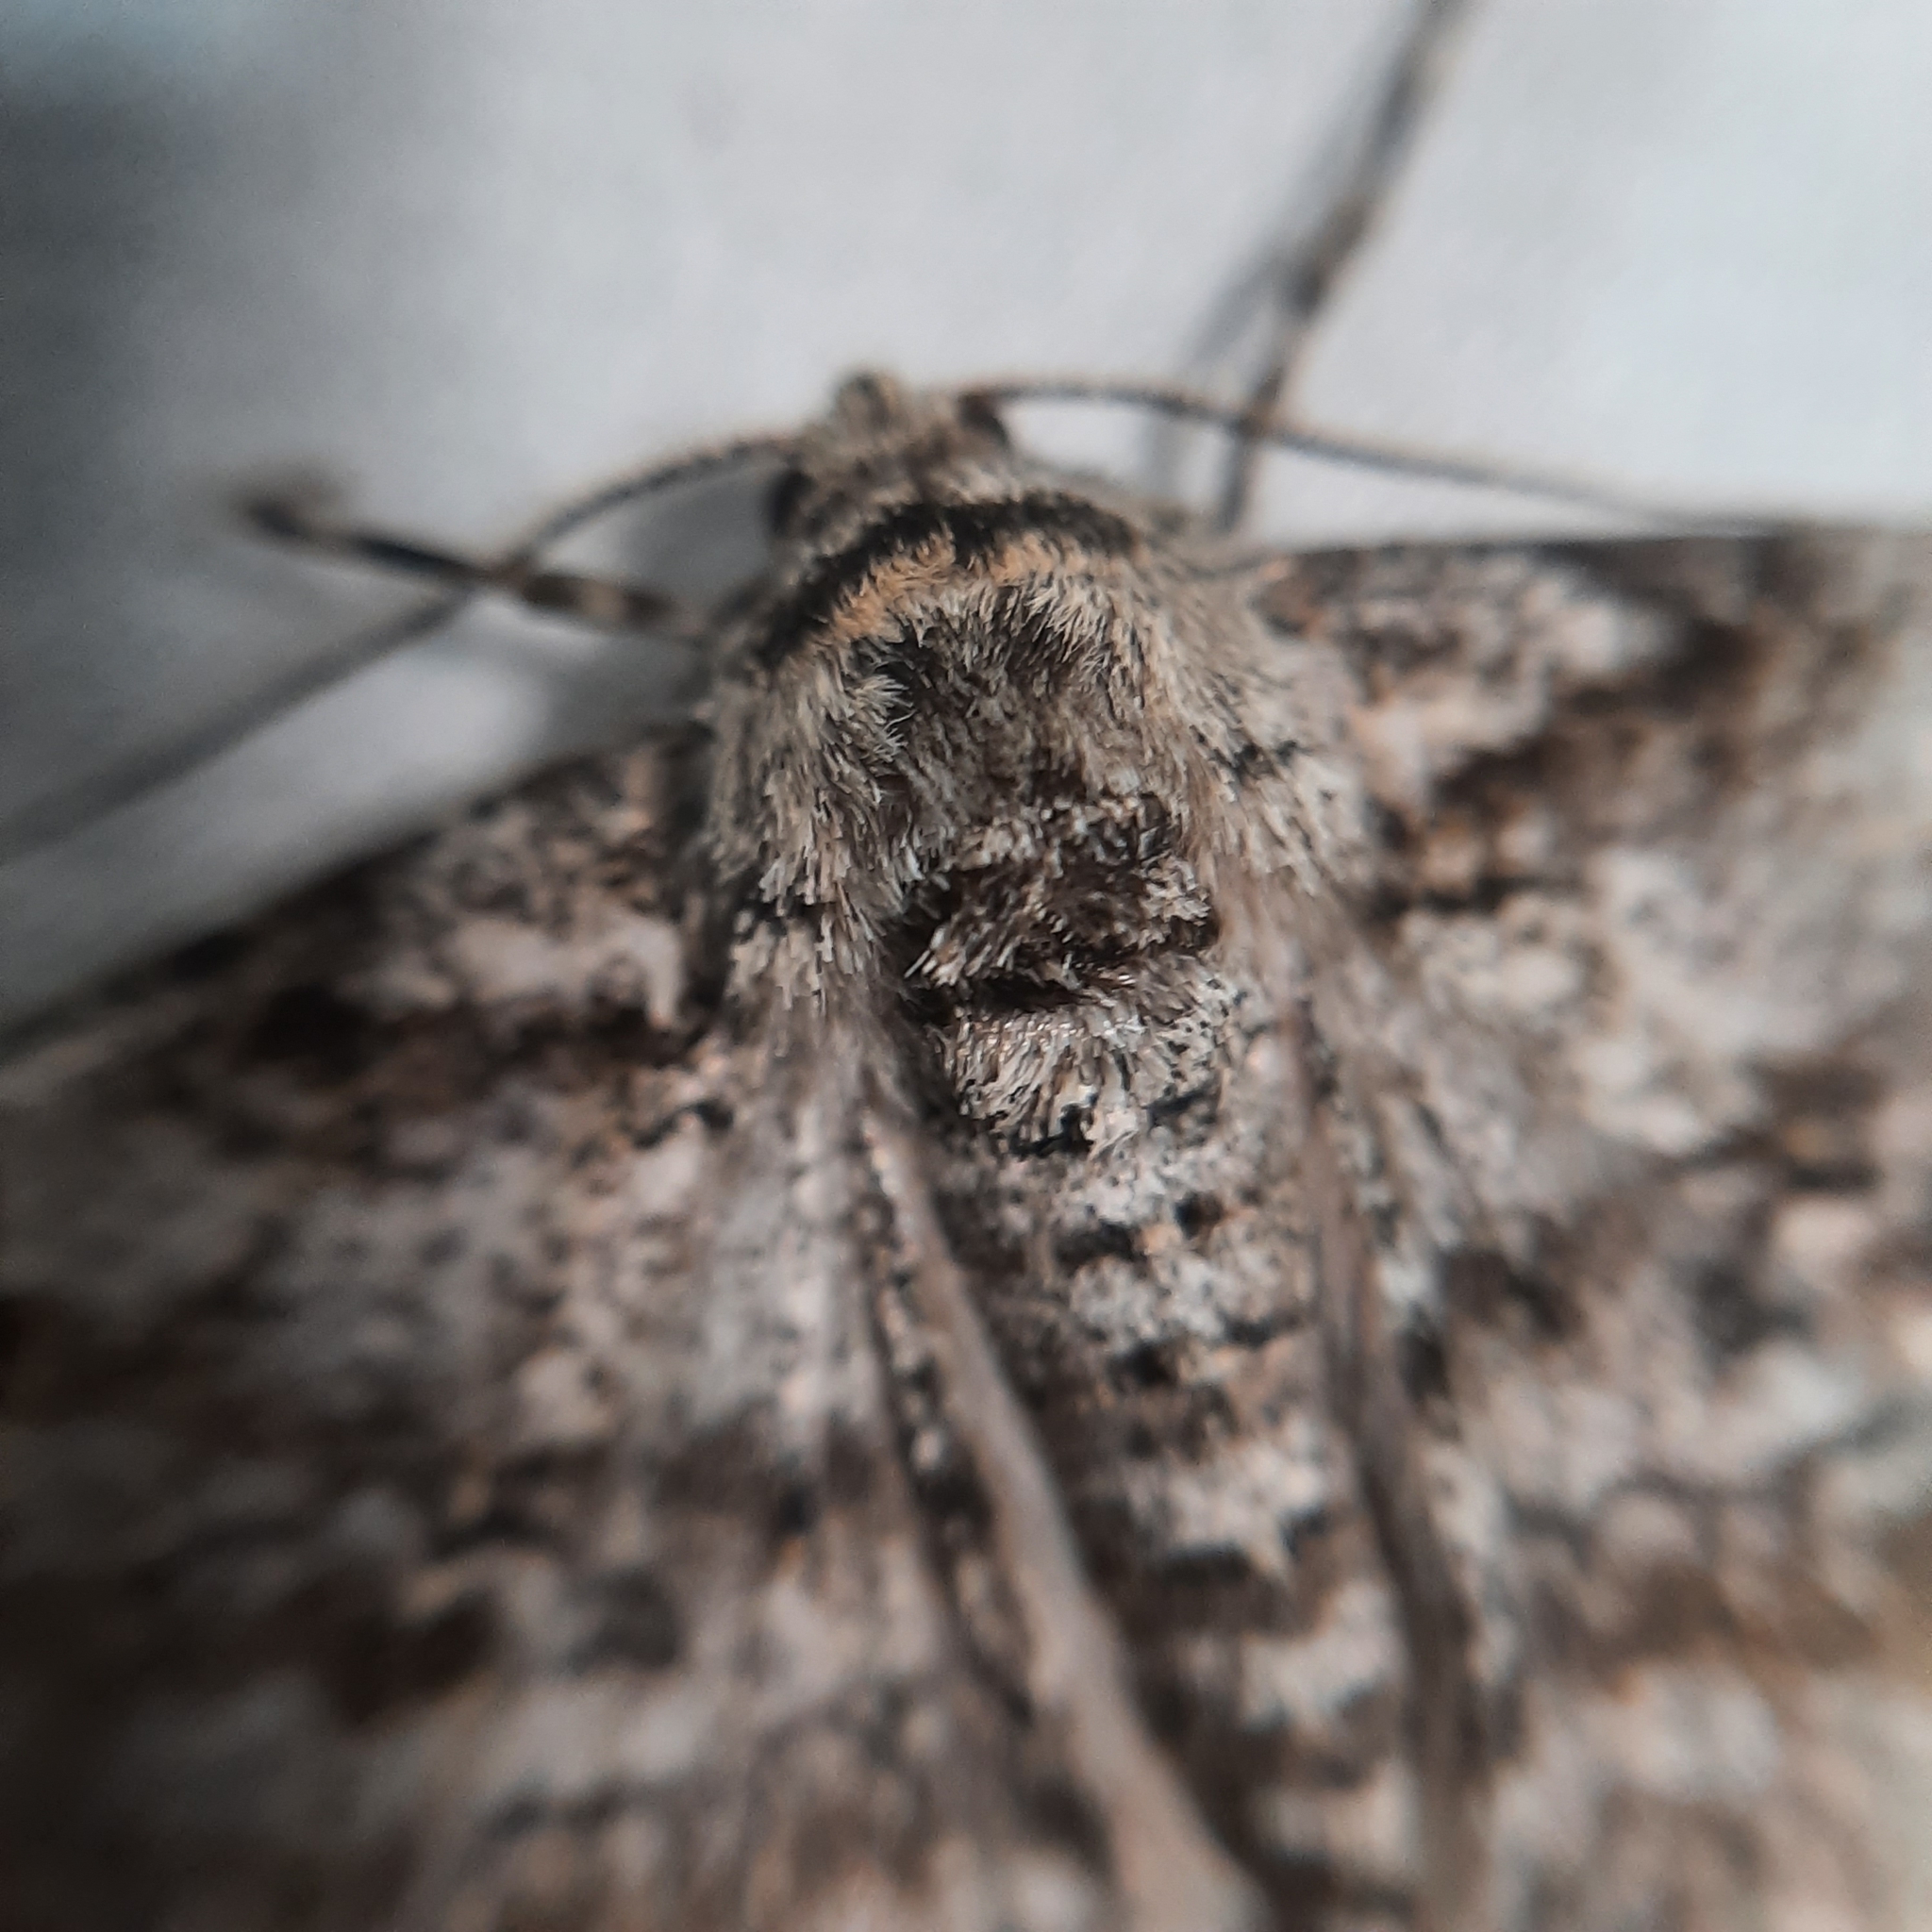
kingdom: Animalia
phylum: Arthropoda
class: Insecta
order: Lepidoptera
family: Geometridae
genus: Peribatodes
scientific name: Peribatodes rhomboidaria
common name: Willow beauty
